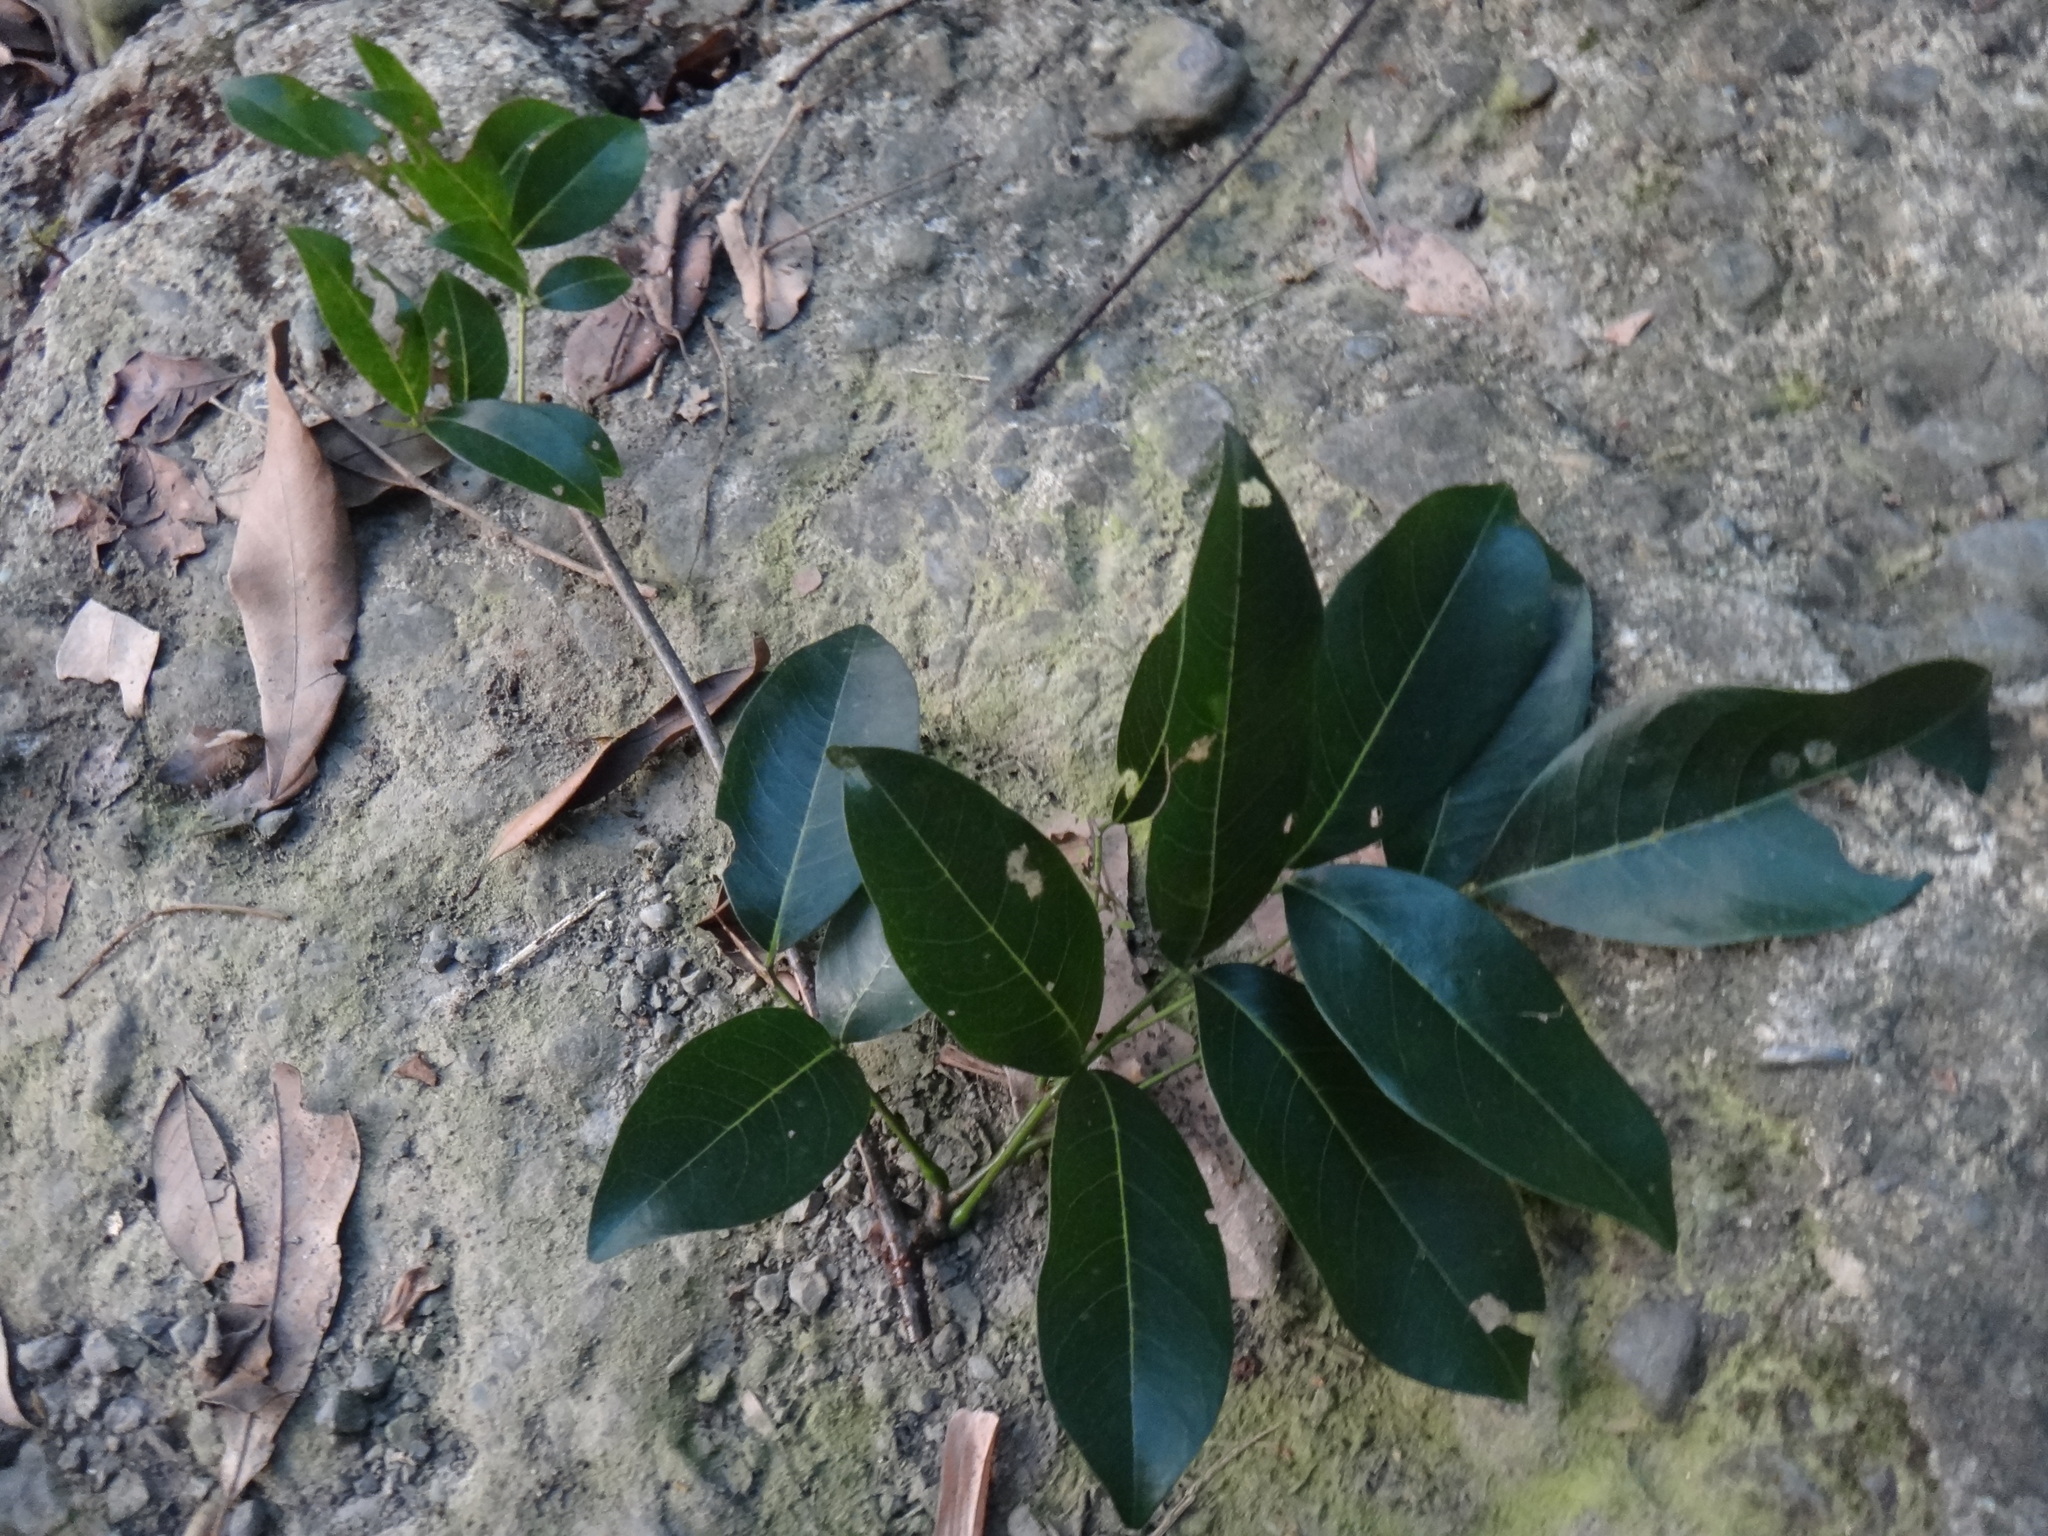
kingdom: Plantae
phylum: Tracheophyta
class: Magnoliopsida
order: Fabales
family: Fabaceae
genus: Derris
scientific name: Derris laxiflora
